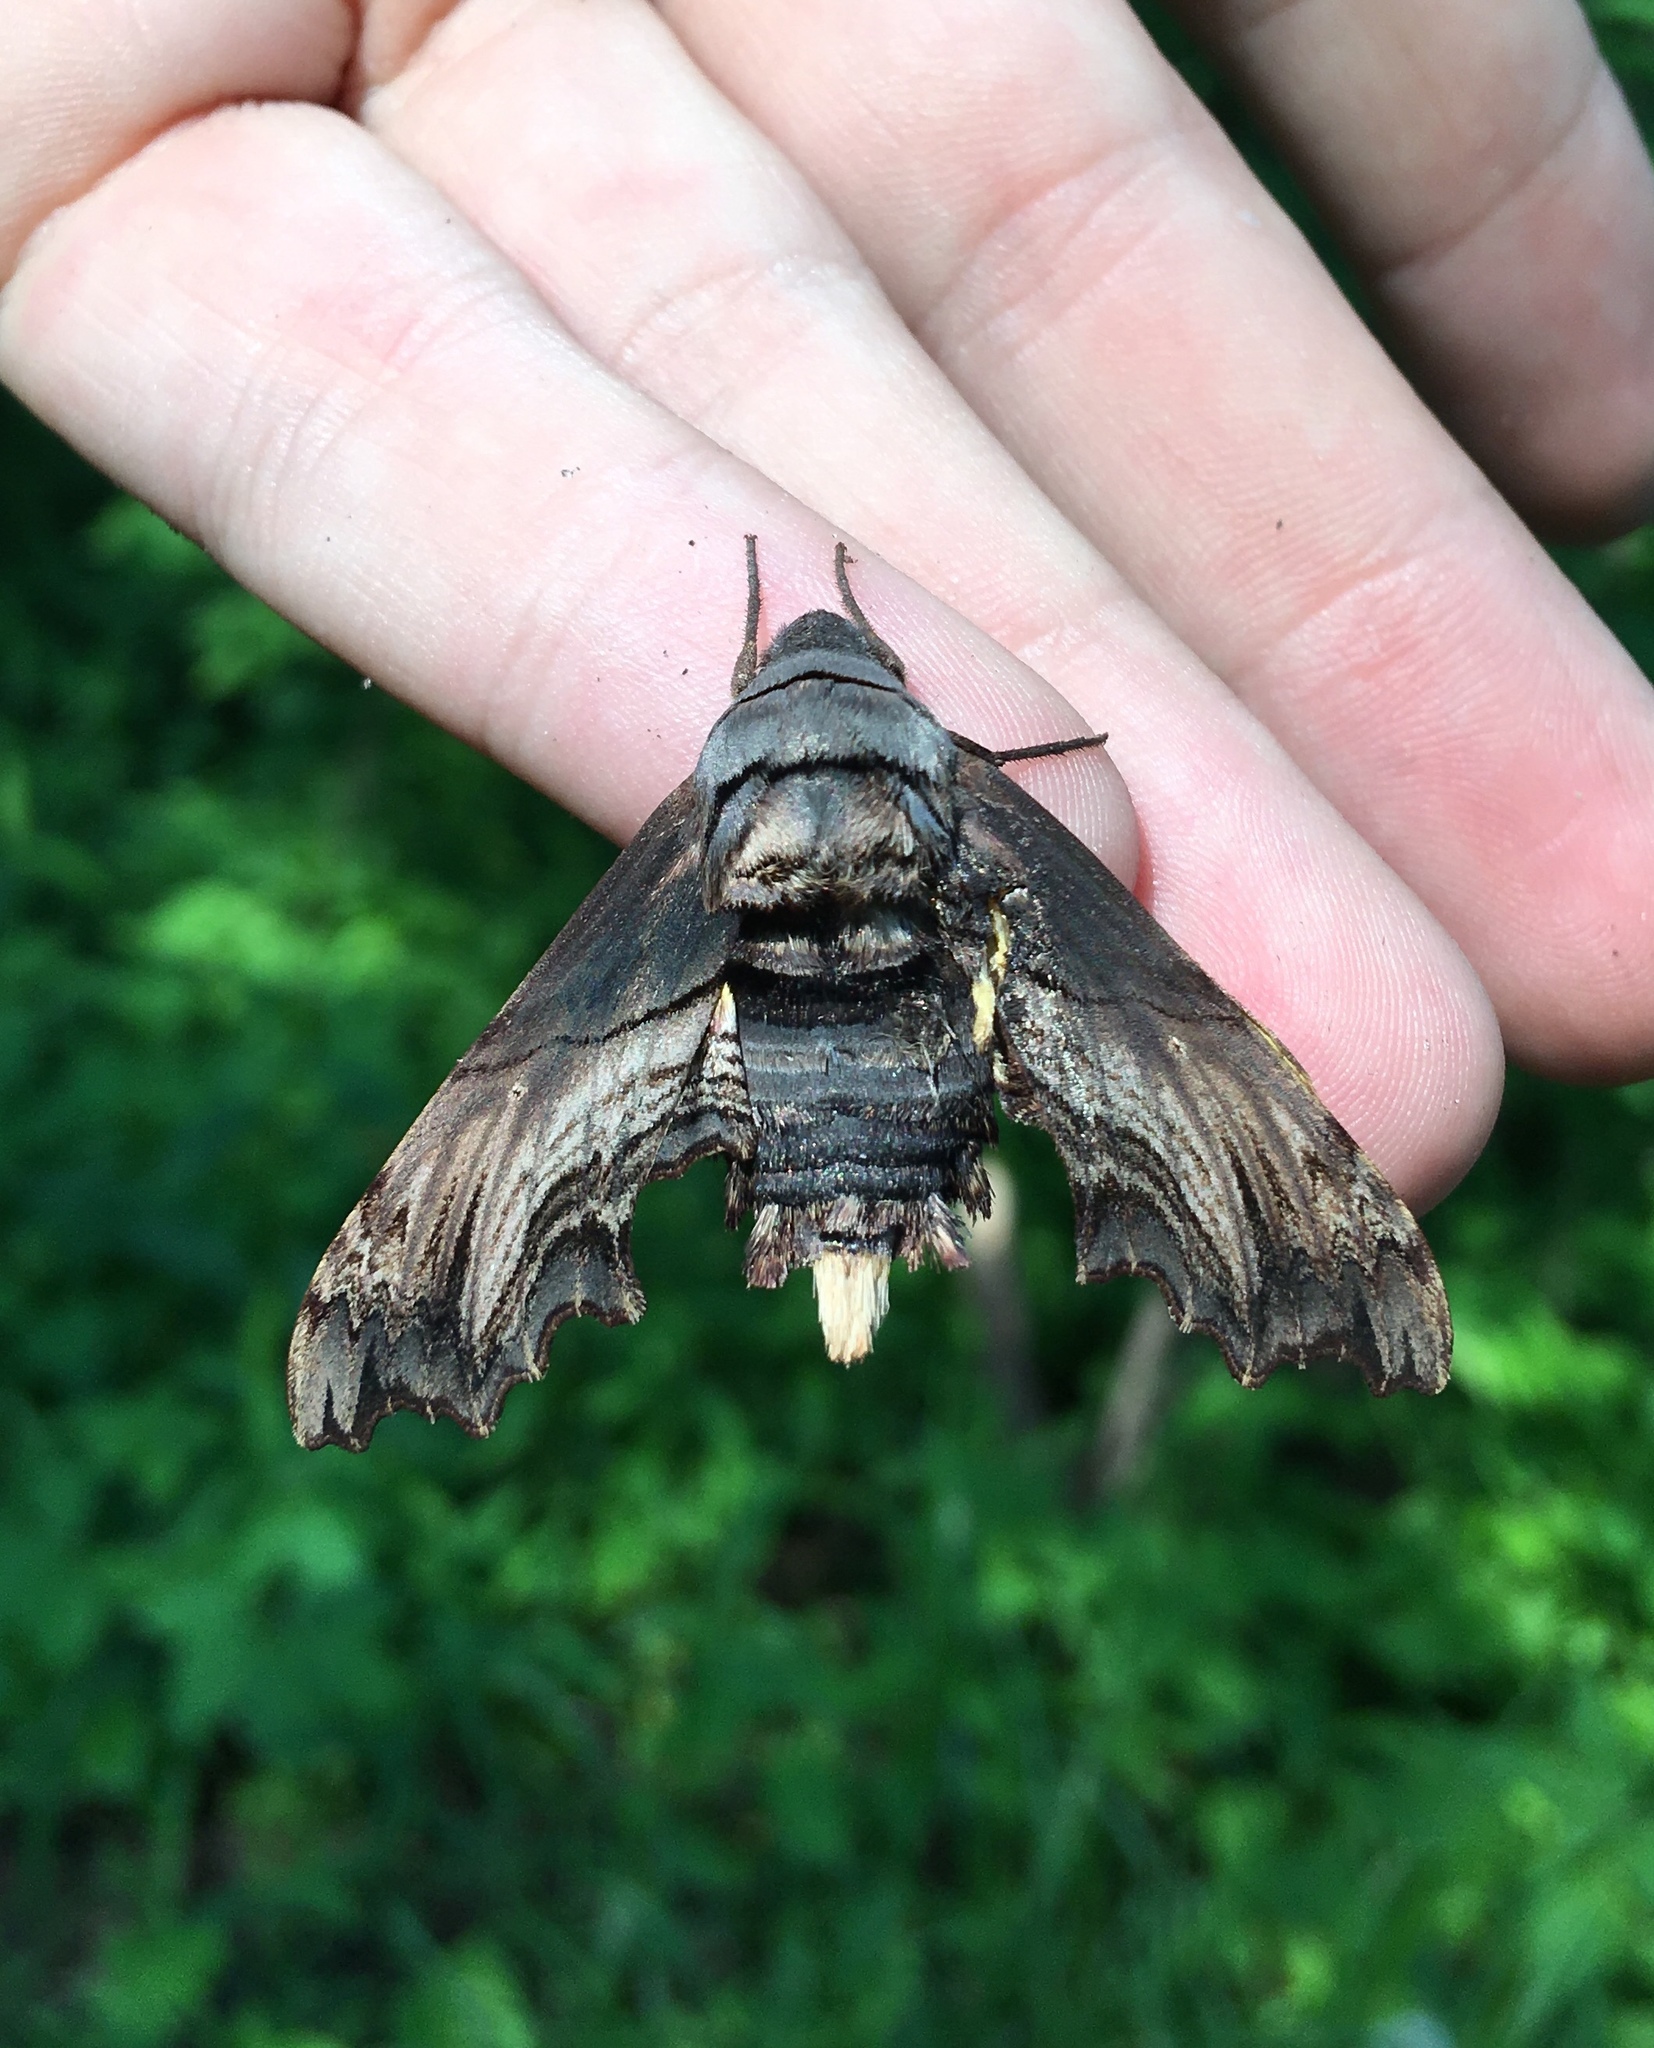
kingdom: Animalia
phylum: Arthropoda
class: Insecta
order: Lepidoptera
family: Sphingidae
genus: Sphecodina
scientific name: Sphecodina abbottii
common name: Abbott's sphinx
